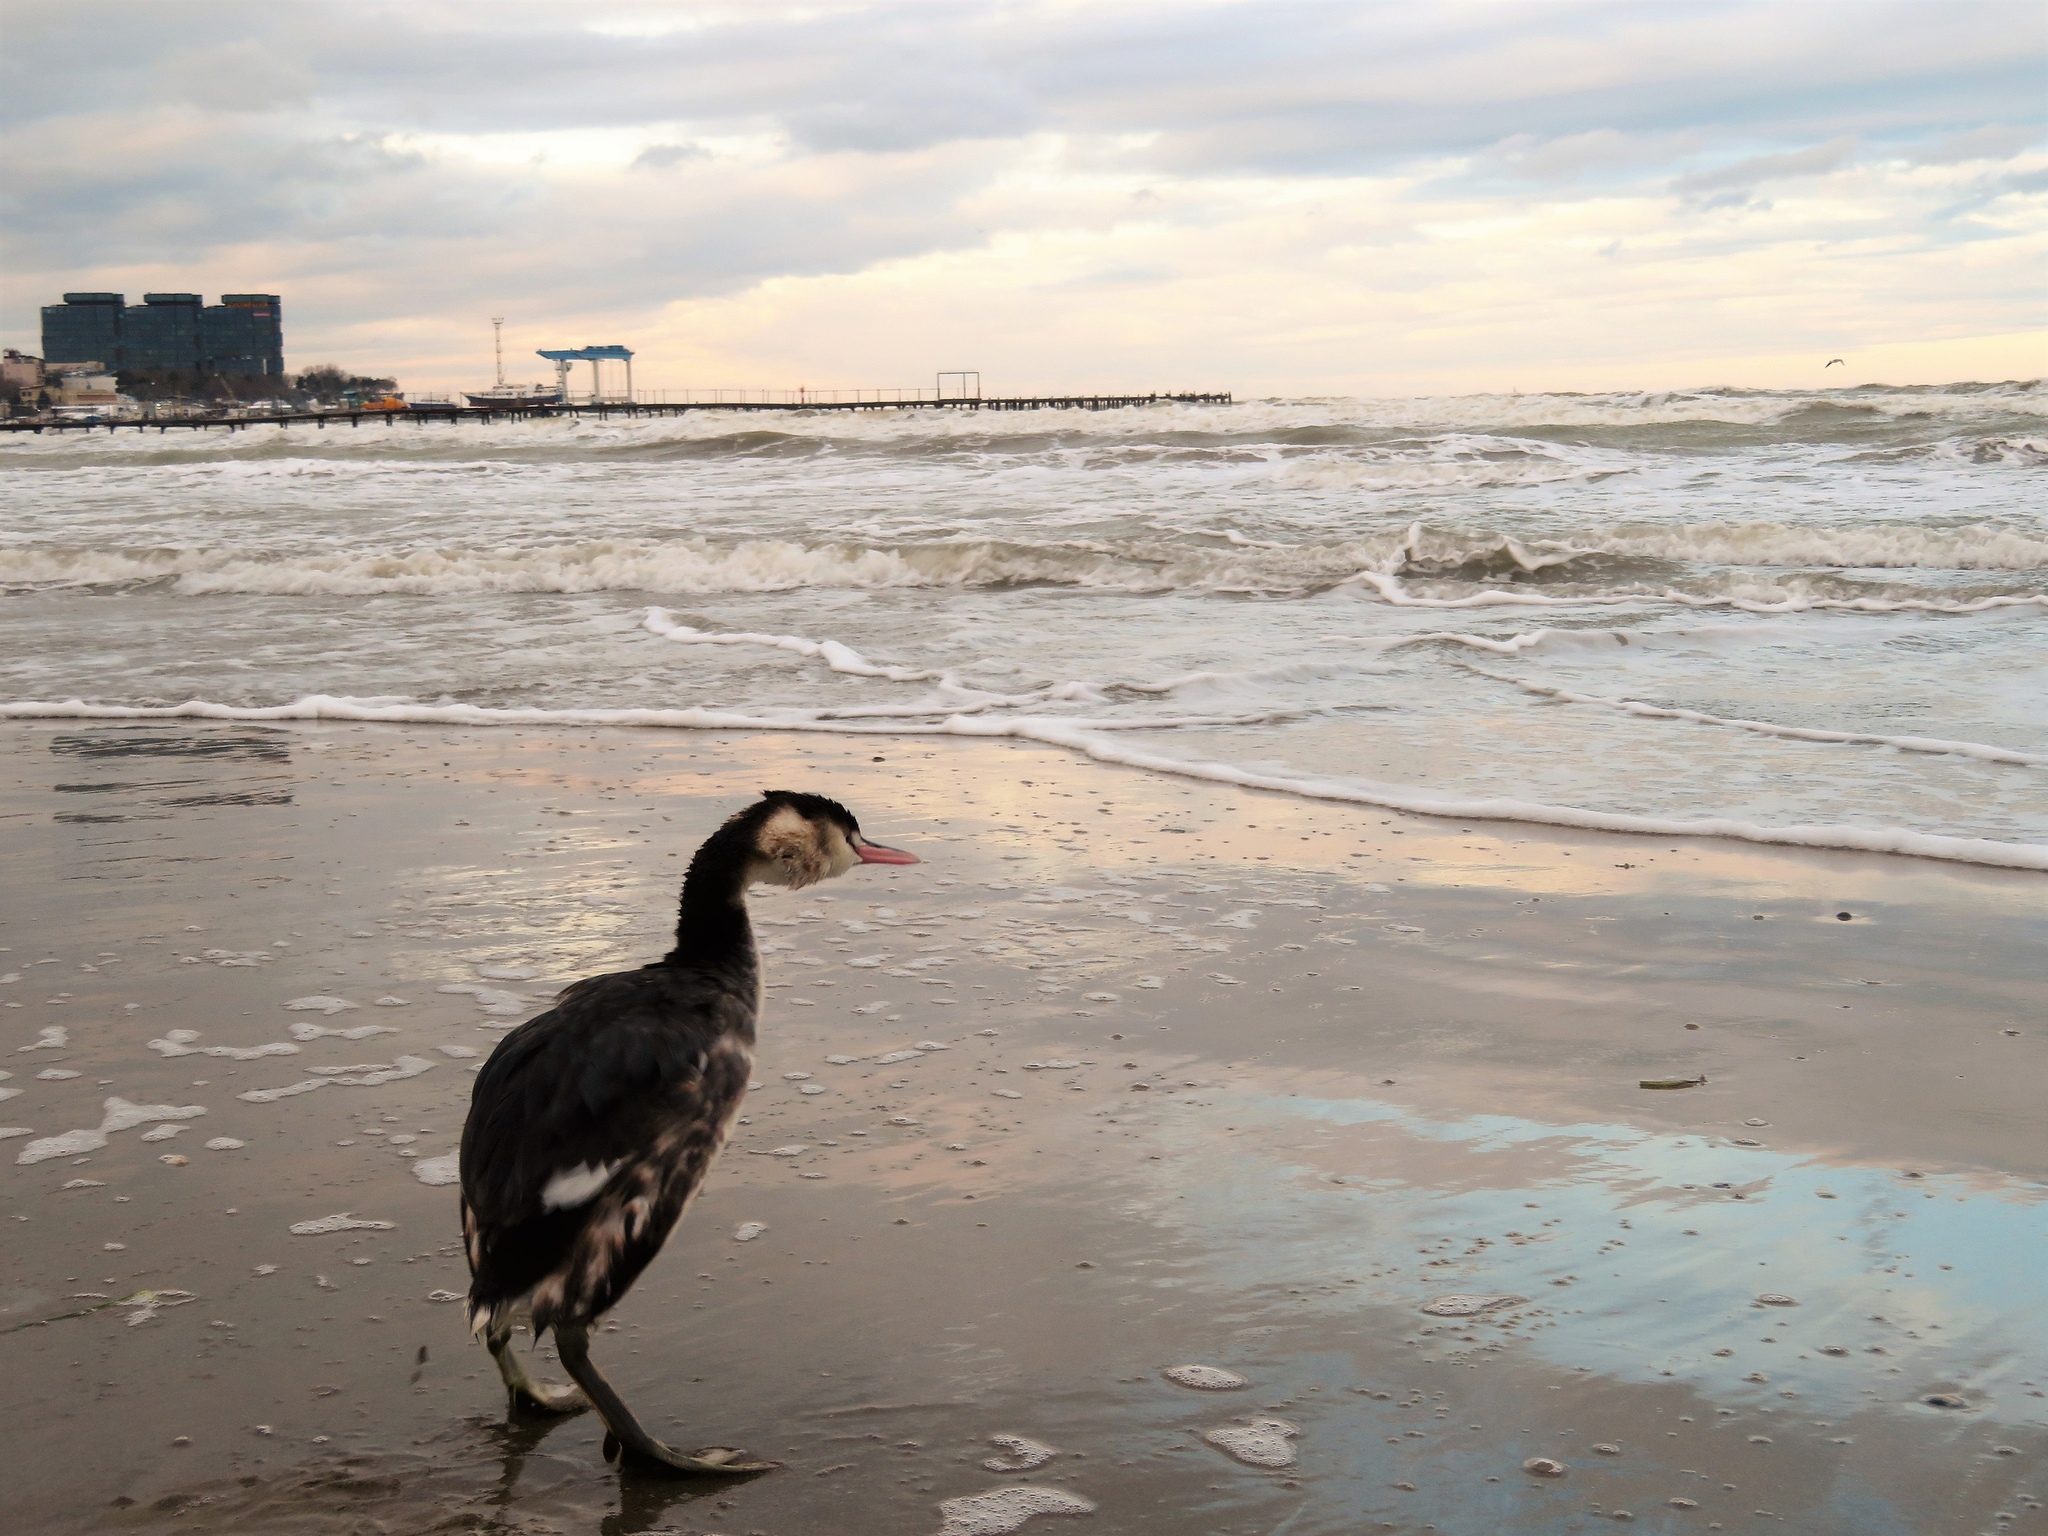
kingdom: Animalia
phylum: Chordata
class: Aves
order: Podicipediformes
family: Podicipedidae
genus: Podiceps
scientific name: Podiceps cristatus
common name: Great crested grebe
